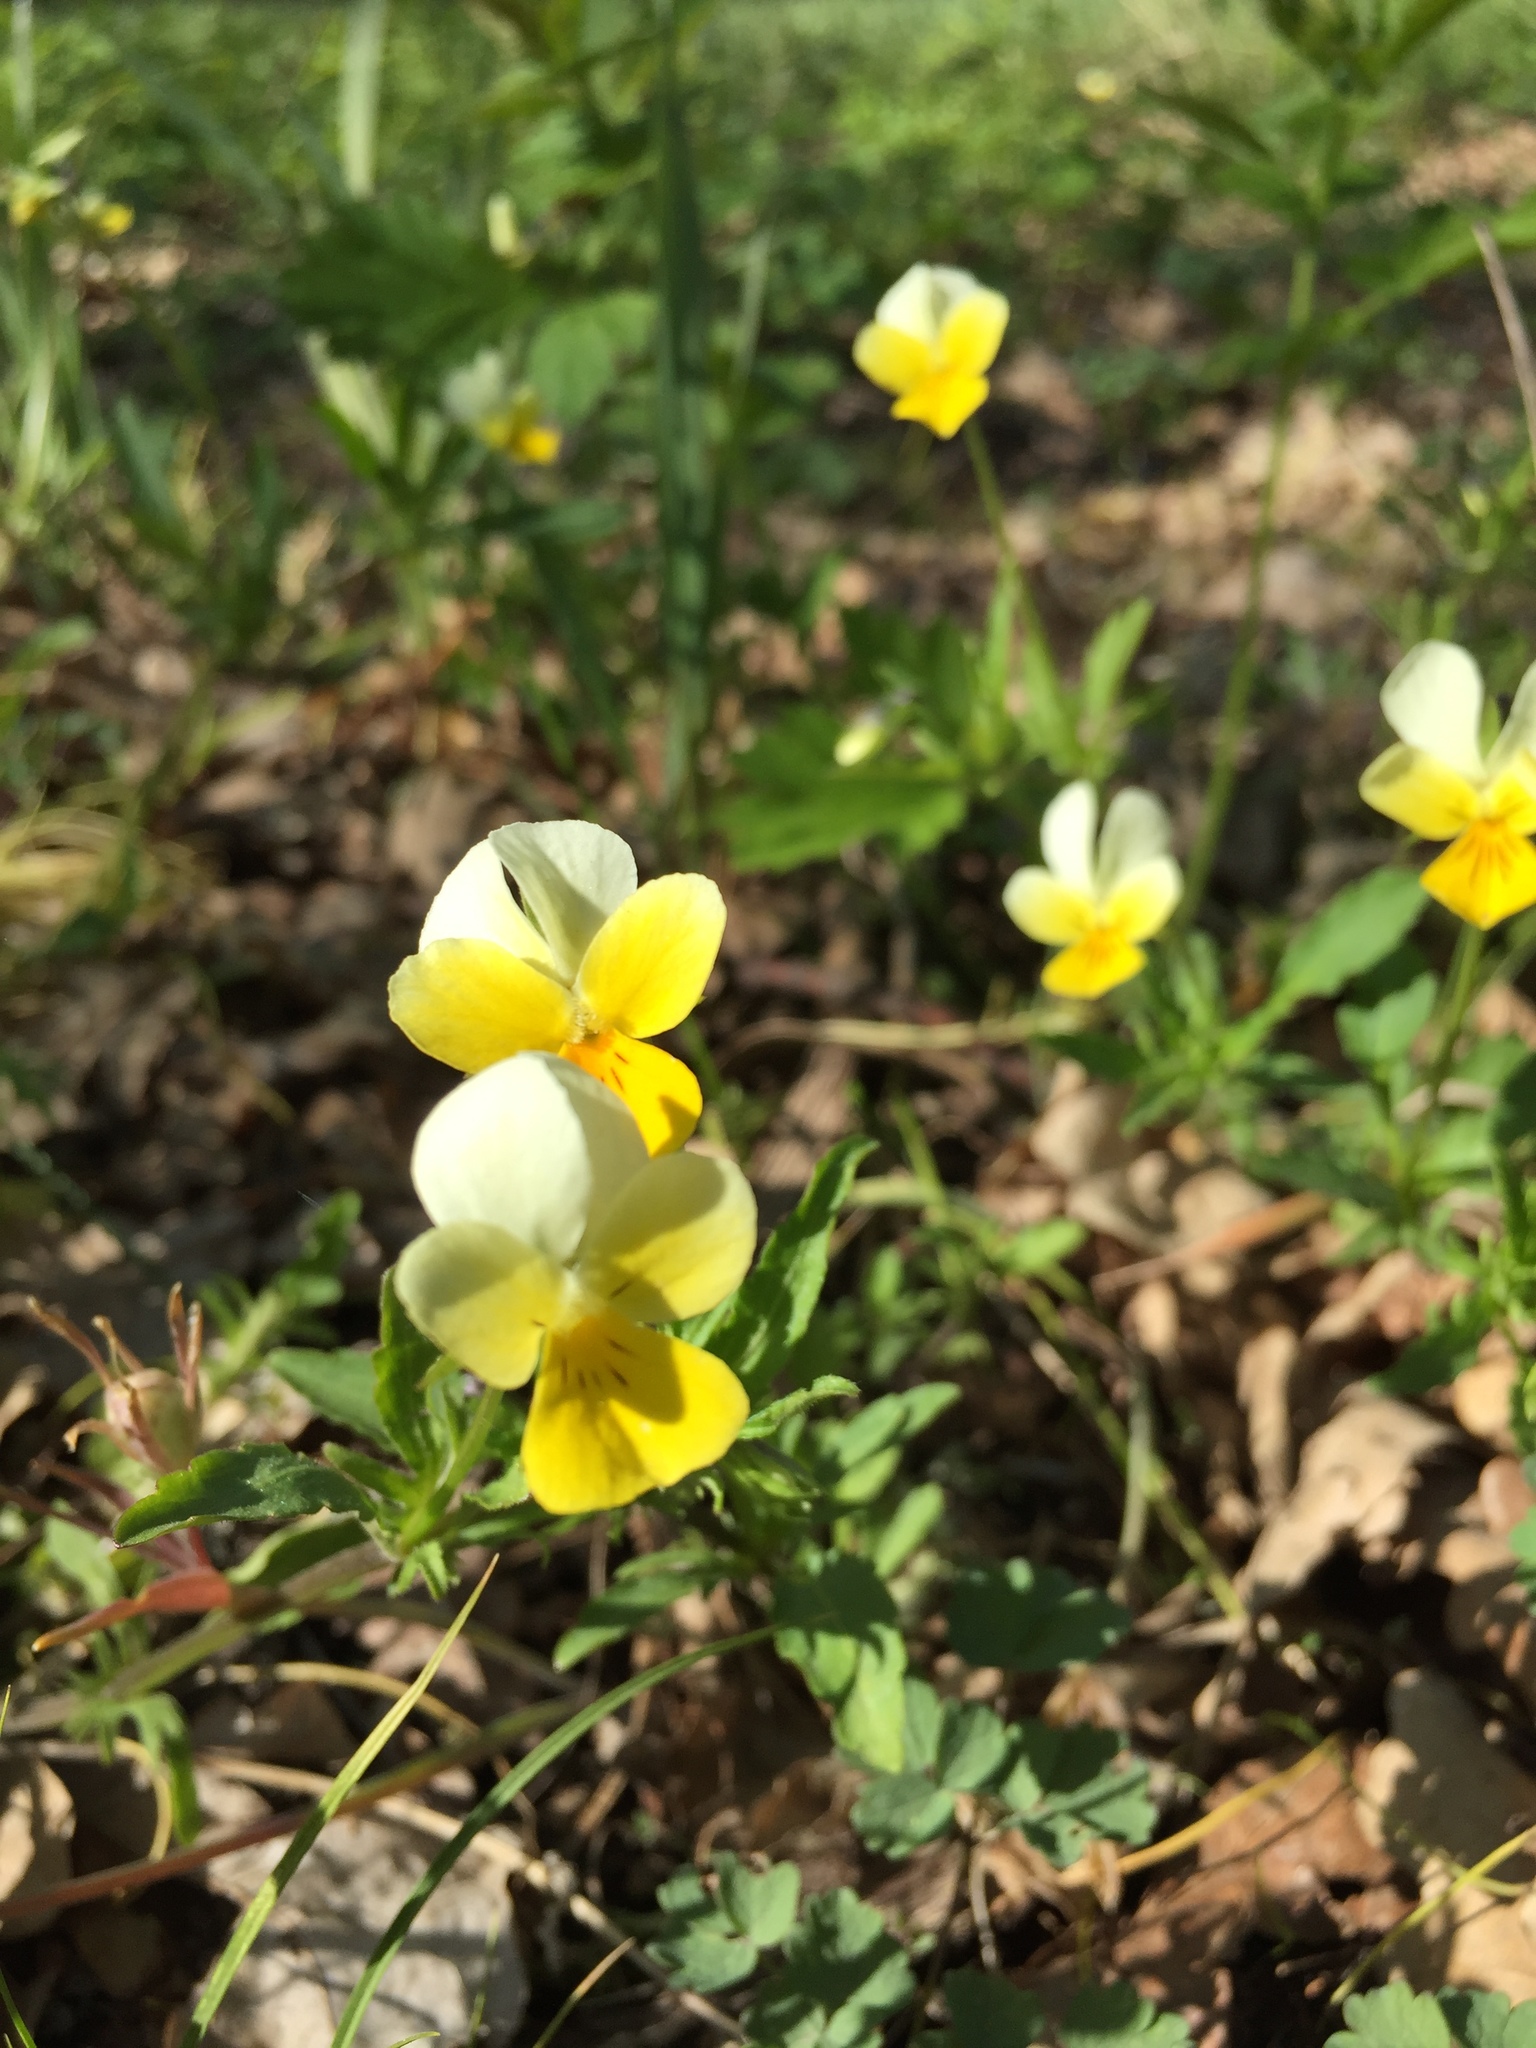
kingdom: Plantae
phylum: Tracheophyta
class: Magnoliopsida
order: Malpighiales
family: Violaceae
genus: Viola
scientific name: Viola arvensis
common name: Field pansy
